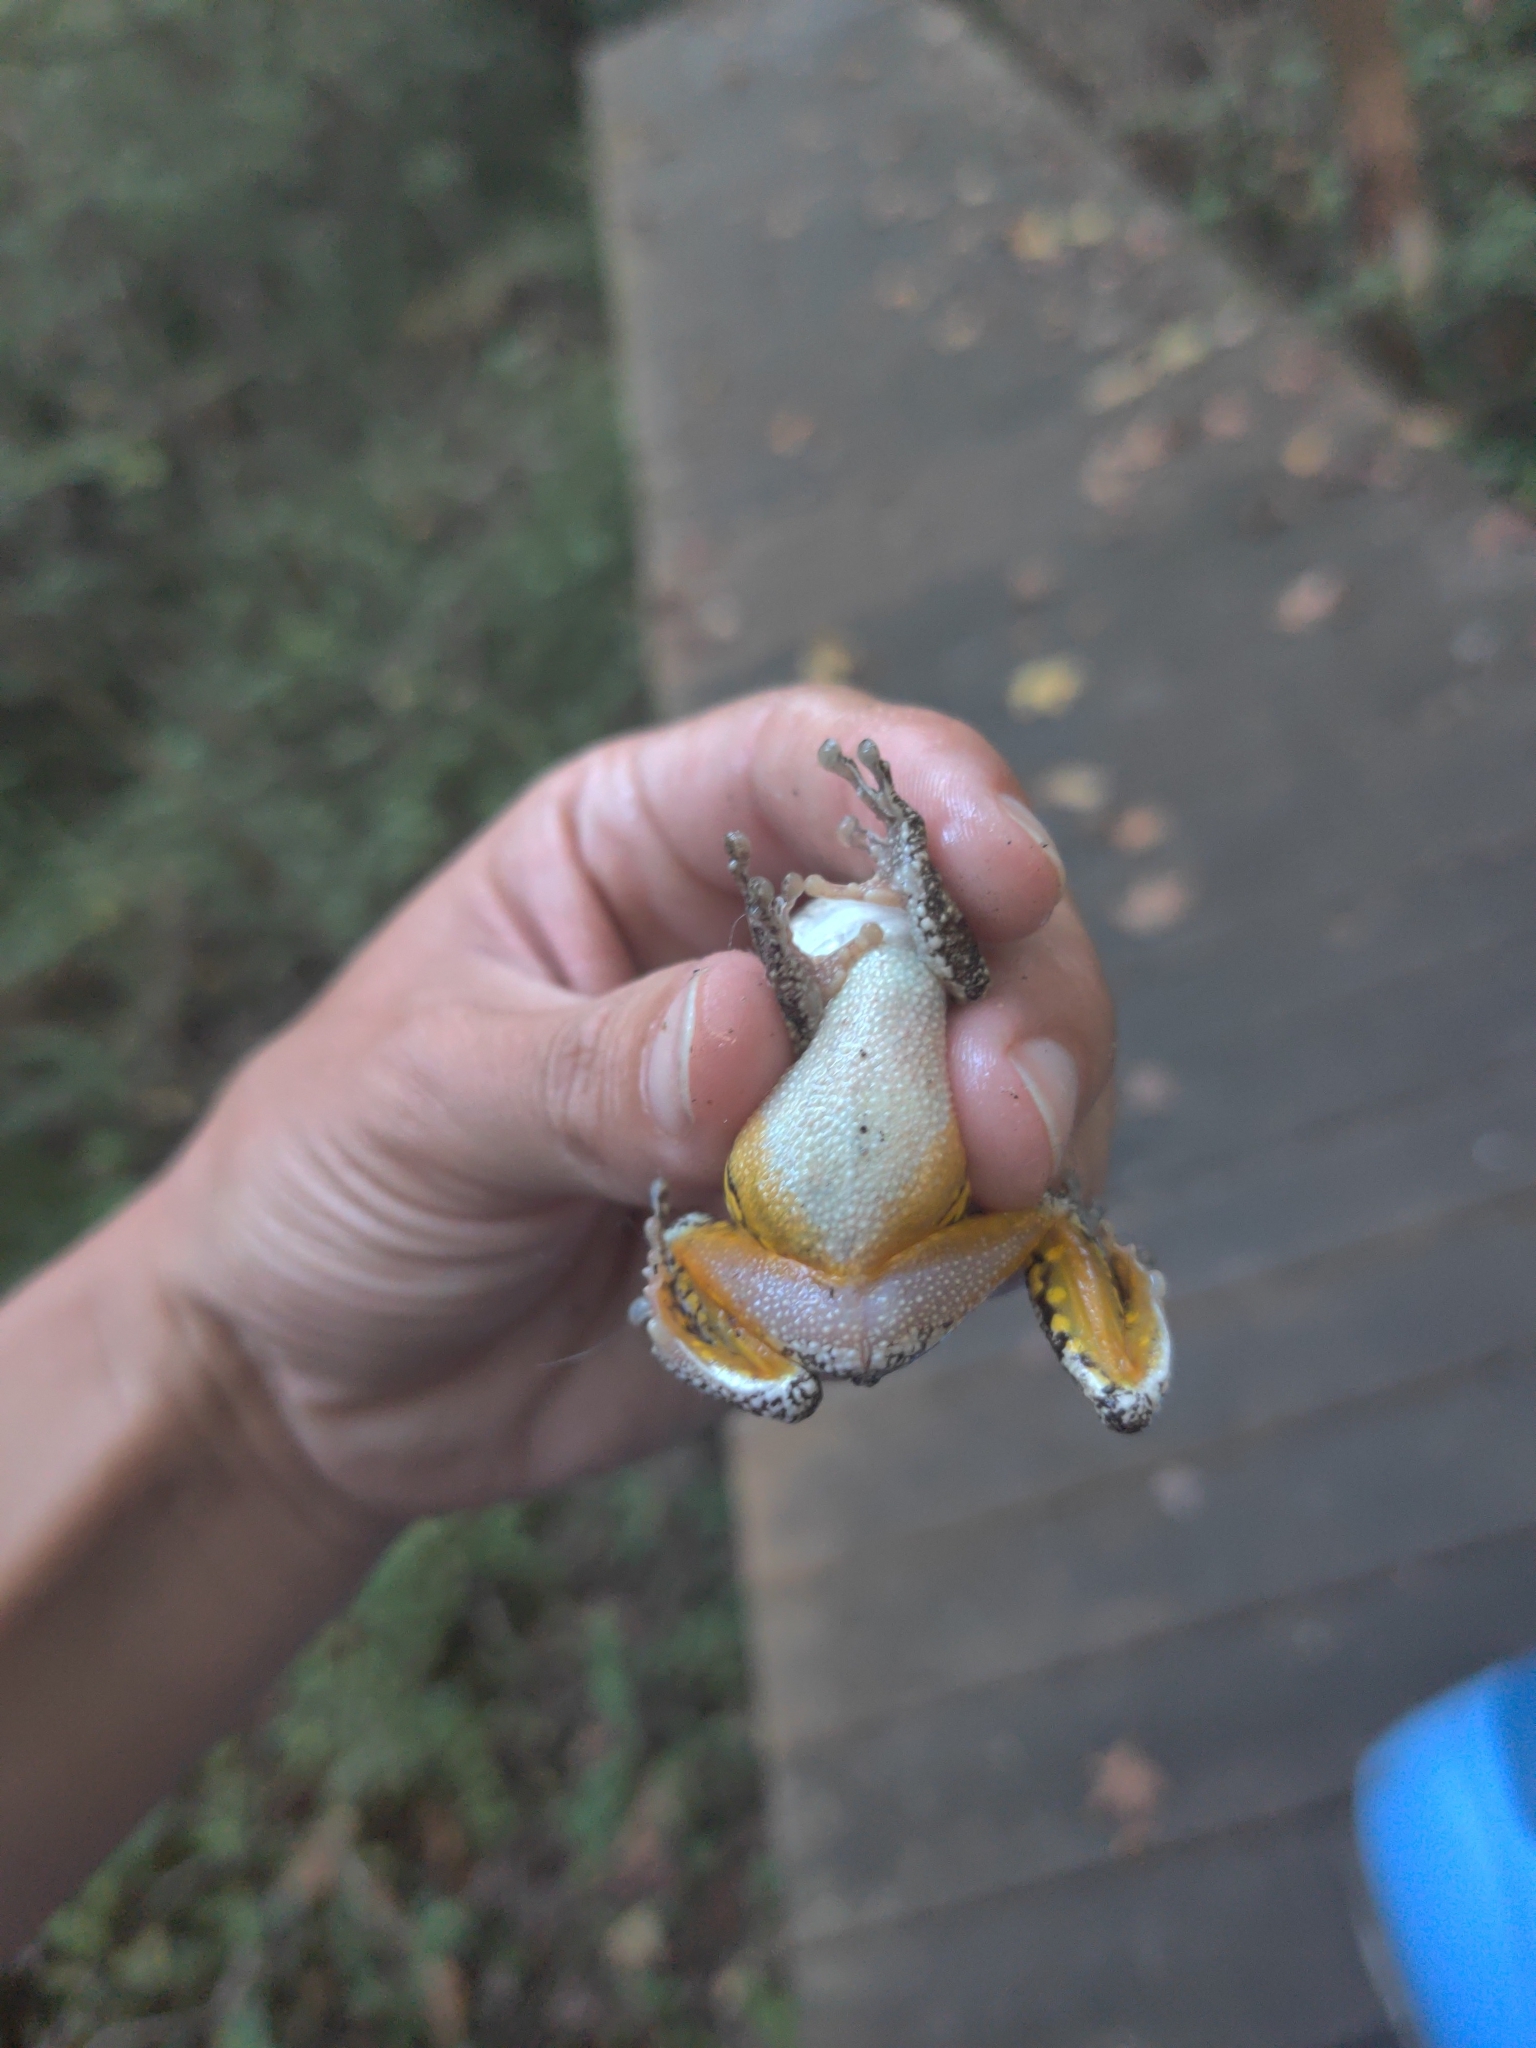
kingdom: Animalia
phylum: Chordata
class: Amphibia
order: Anura
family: Hylidae
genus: Dryophytes
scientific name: Dryophytes chrysoscelis
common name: Cope's gray treefrog
